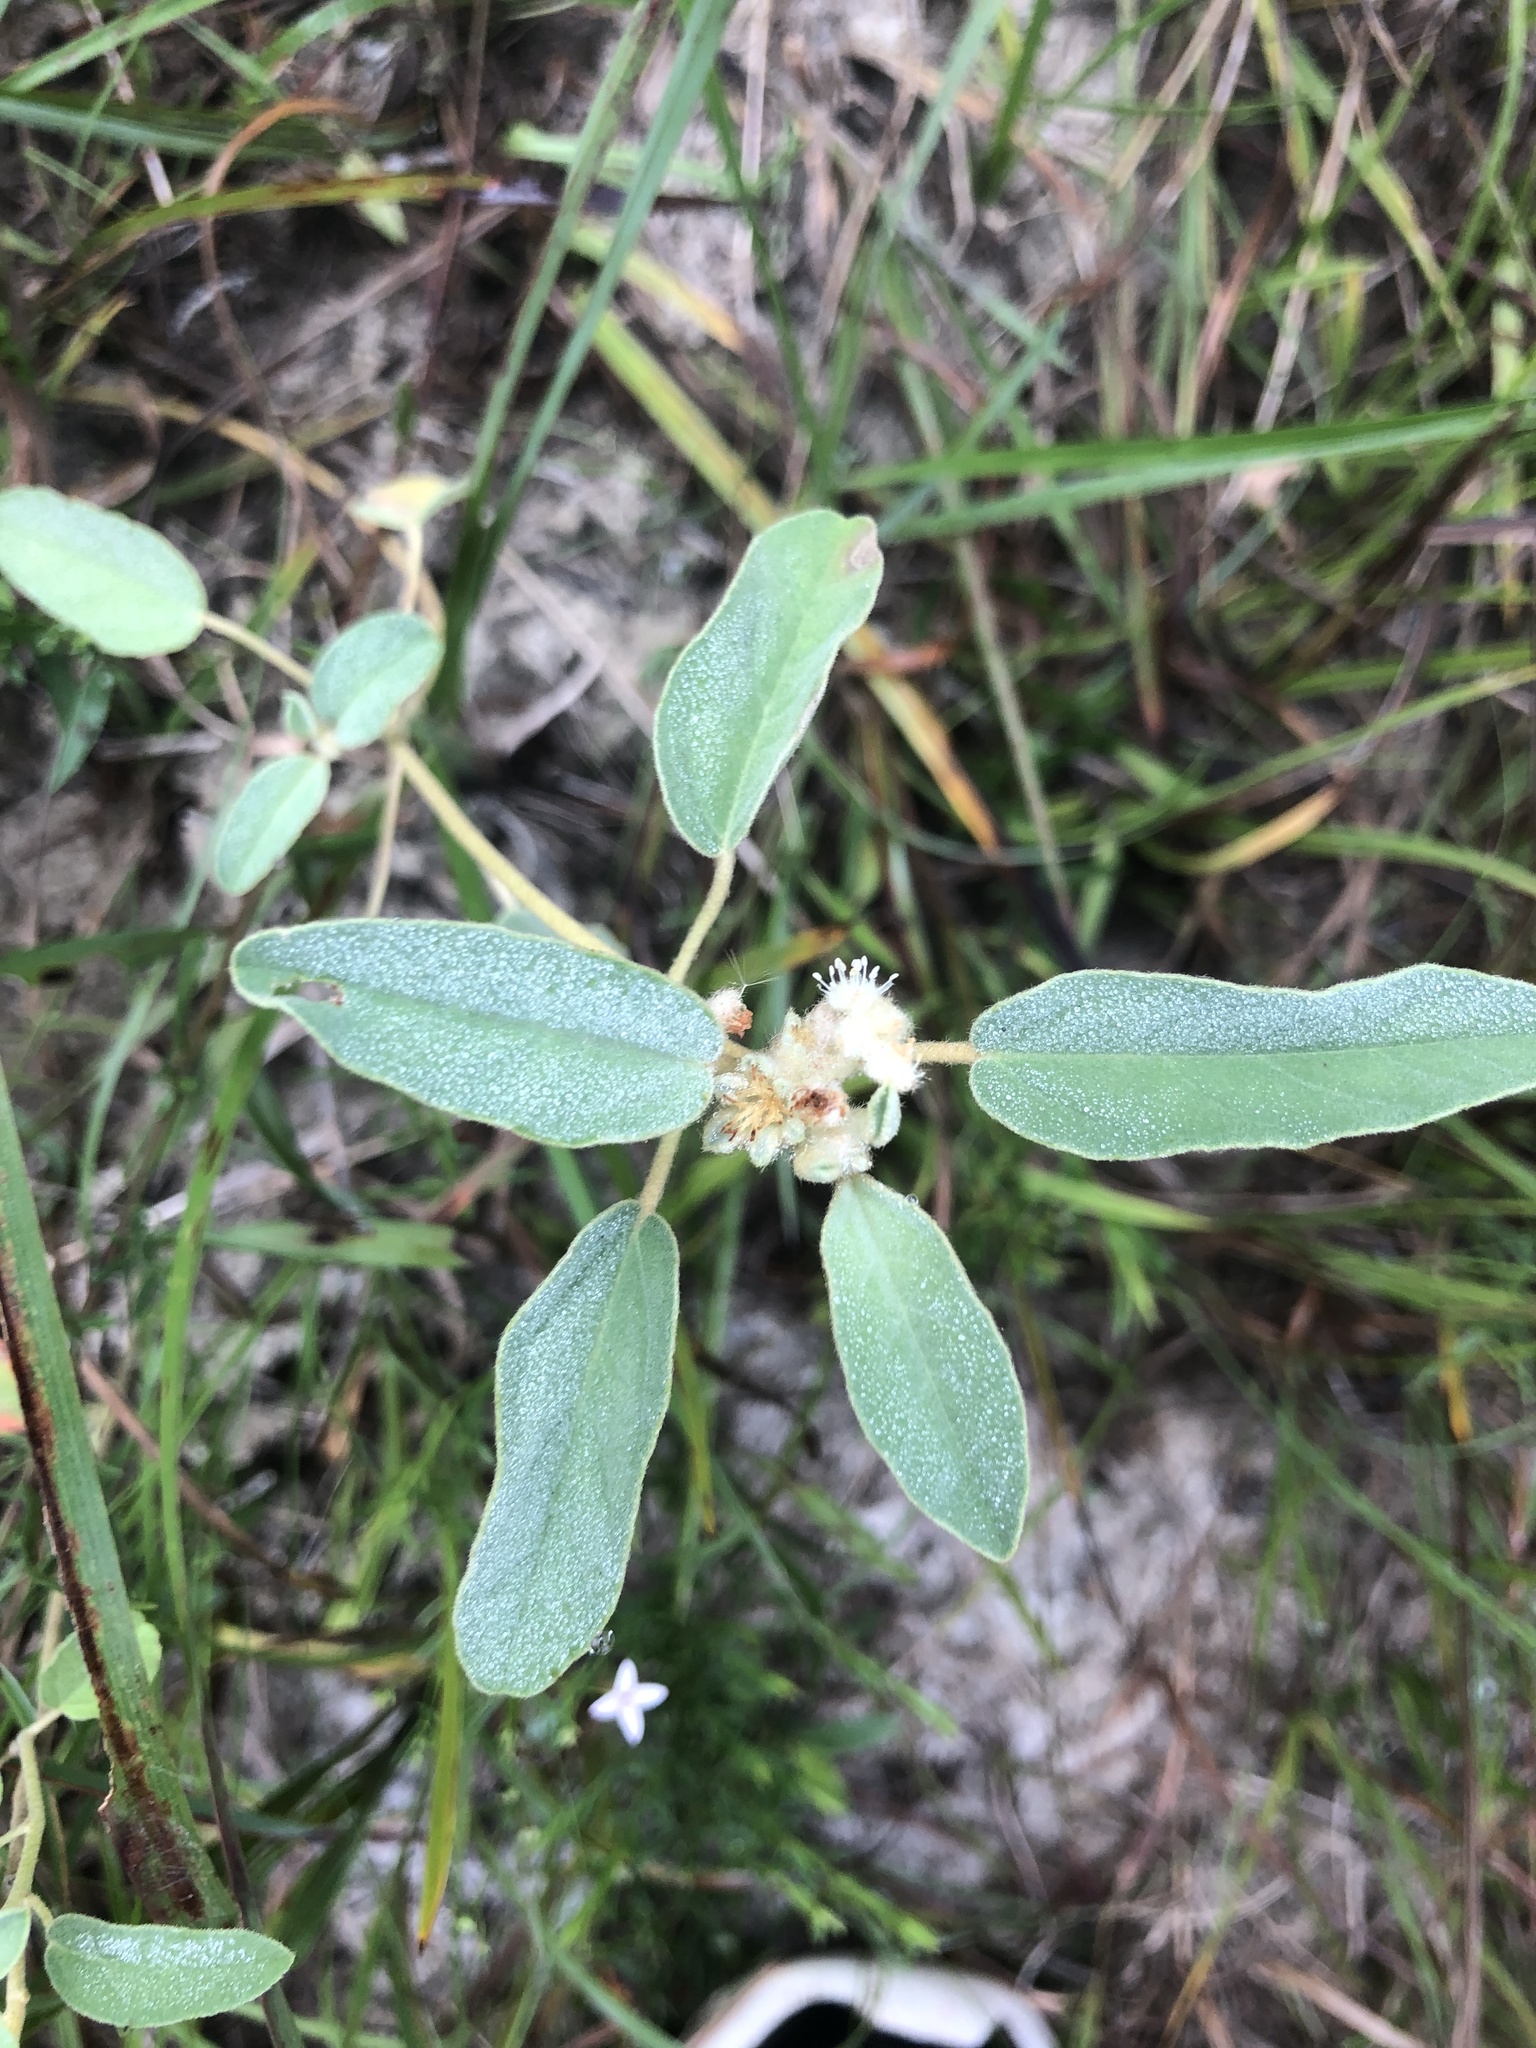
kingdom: Plantae
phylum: Tracheophyta
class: Magnoliopsida
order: Malpighiales
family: Euphorbiaceae
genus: Croton
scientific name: Croton capitatus
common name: Woolly croton
